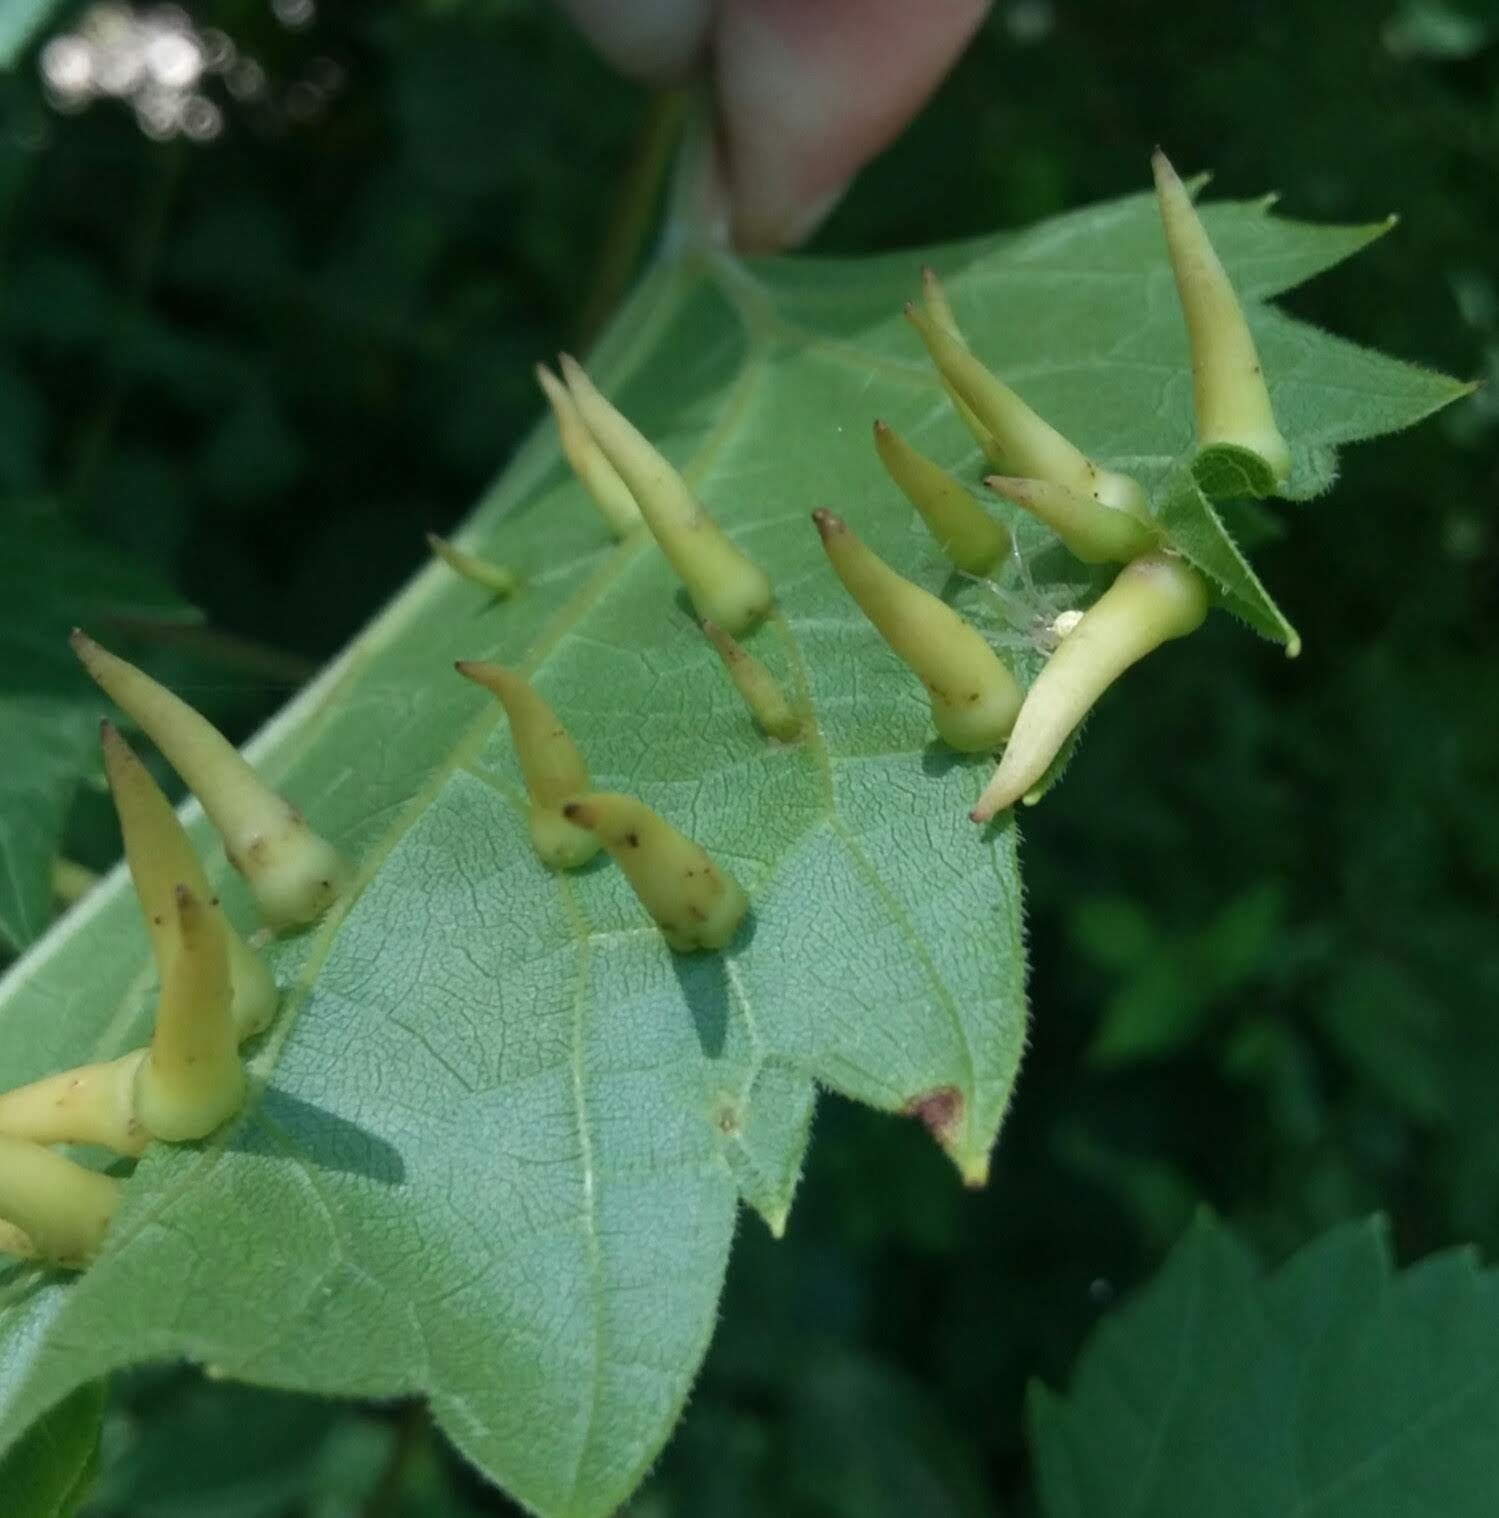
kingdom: Animalia
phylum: Arthropoda
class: Insecta
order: Diptera
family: Cecidomyiidae
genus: Ampelomyia
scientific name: Ampelomyia viticola
